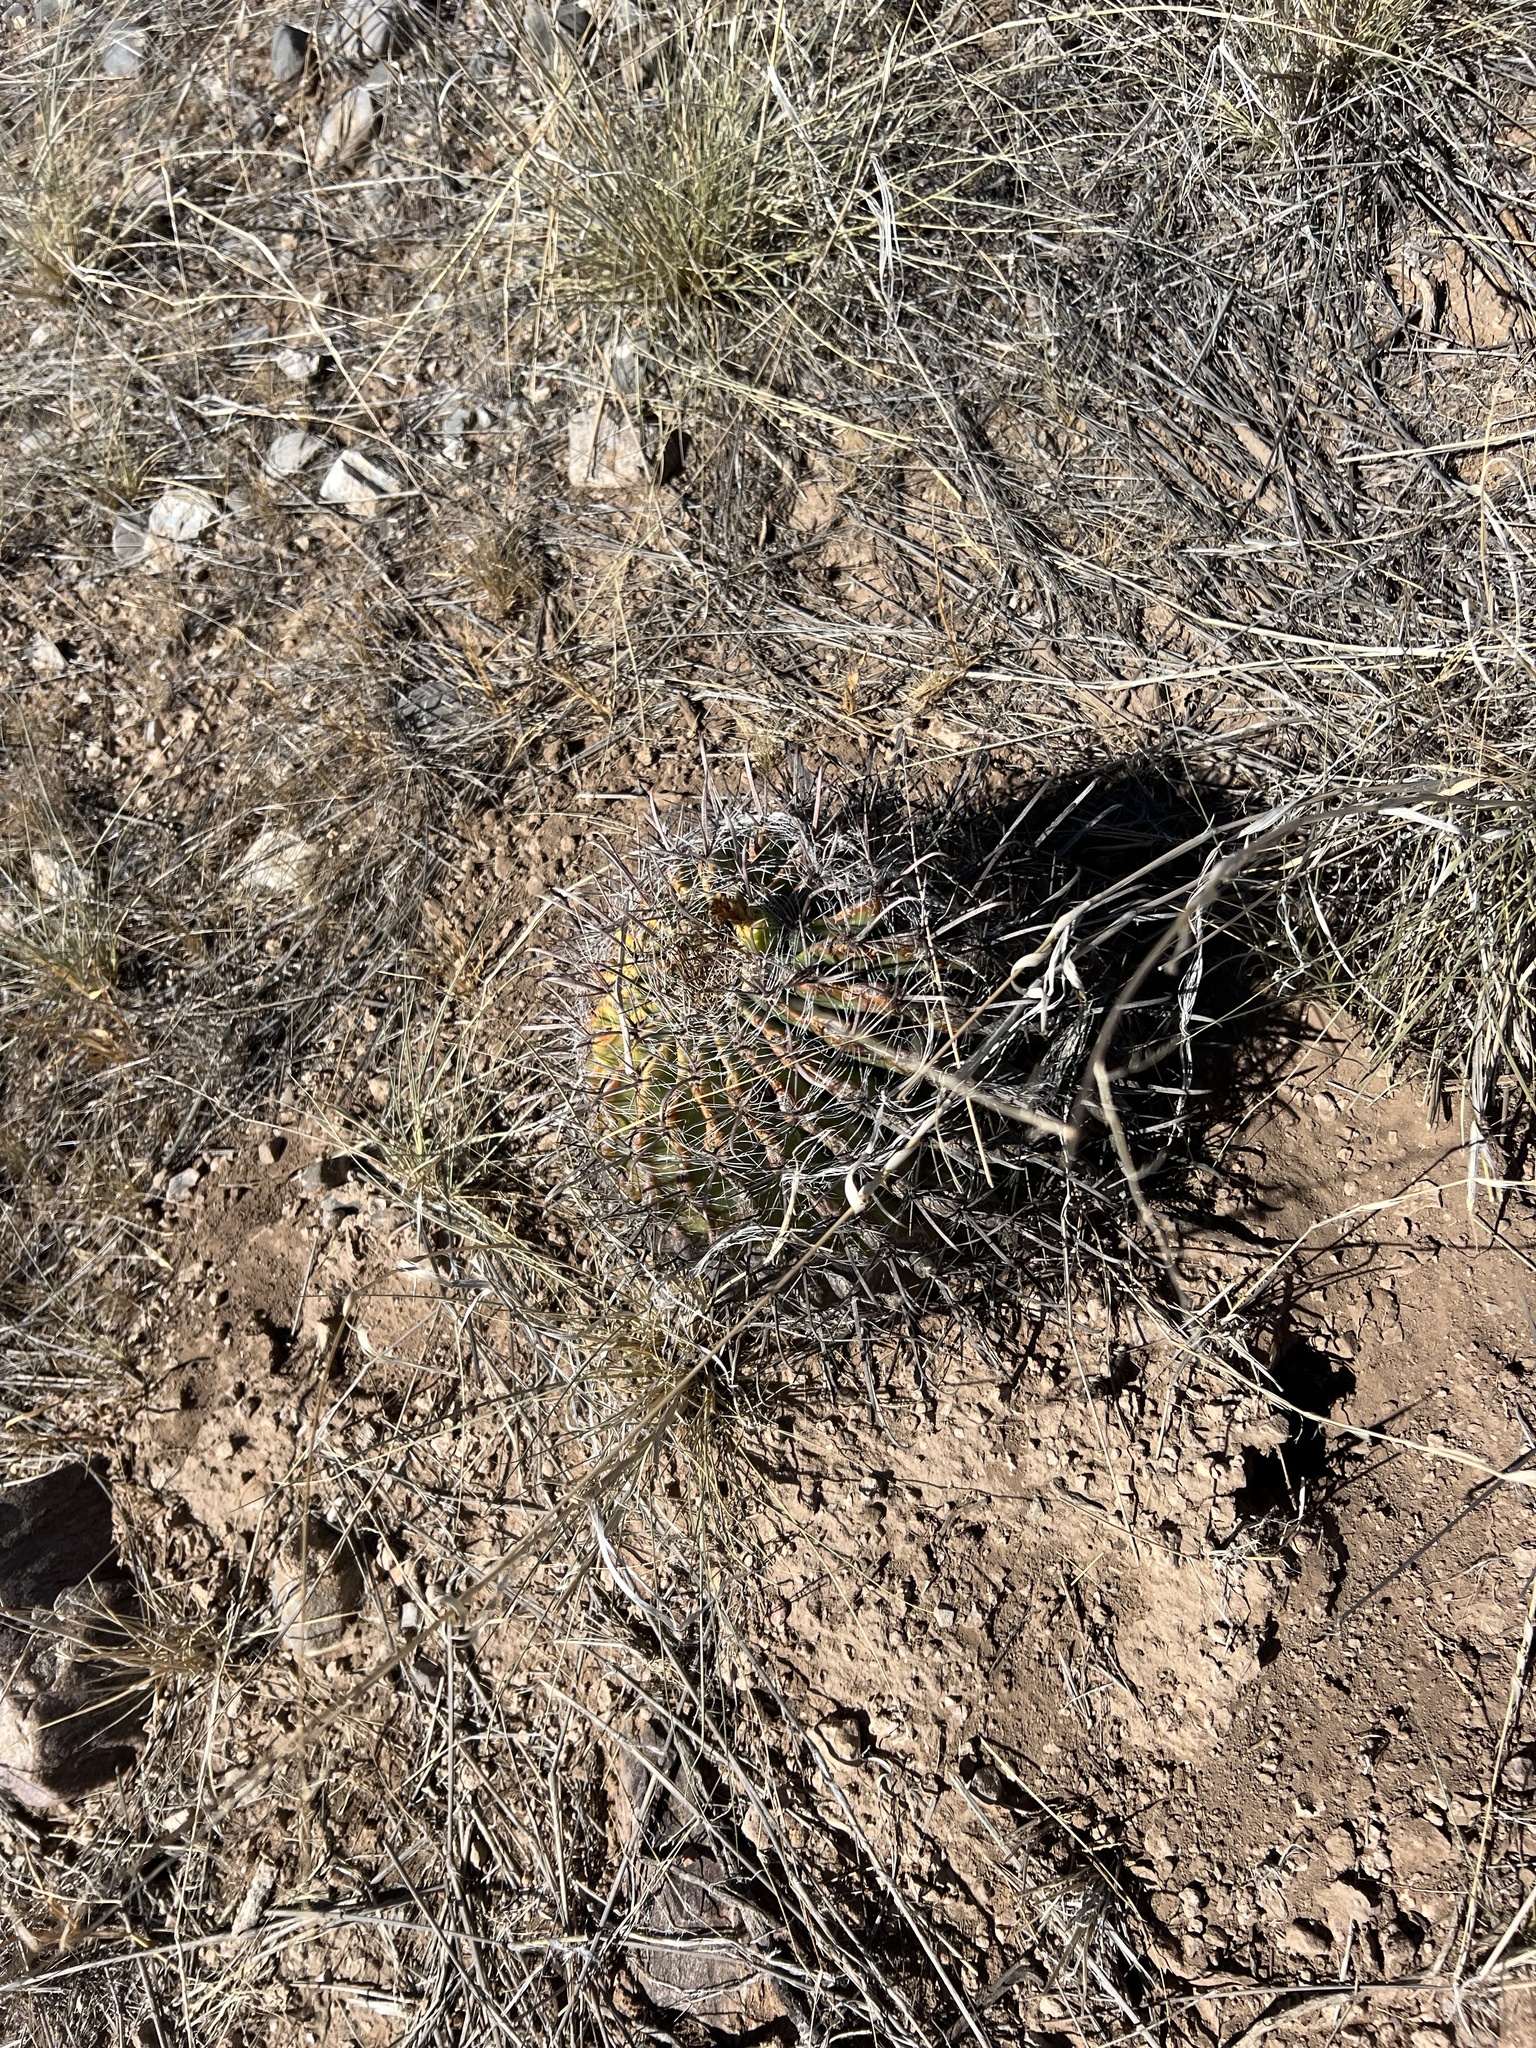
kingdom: Plantae
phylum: Tracheophyta
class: Magnoliopsida
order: Caryophyllales
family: Cactaceae
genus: Ferocactus
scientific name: Ferocactus wislizeni
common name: Candy barrel cactus
